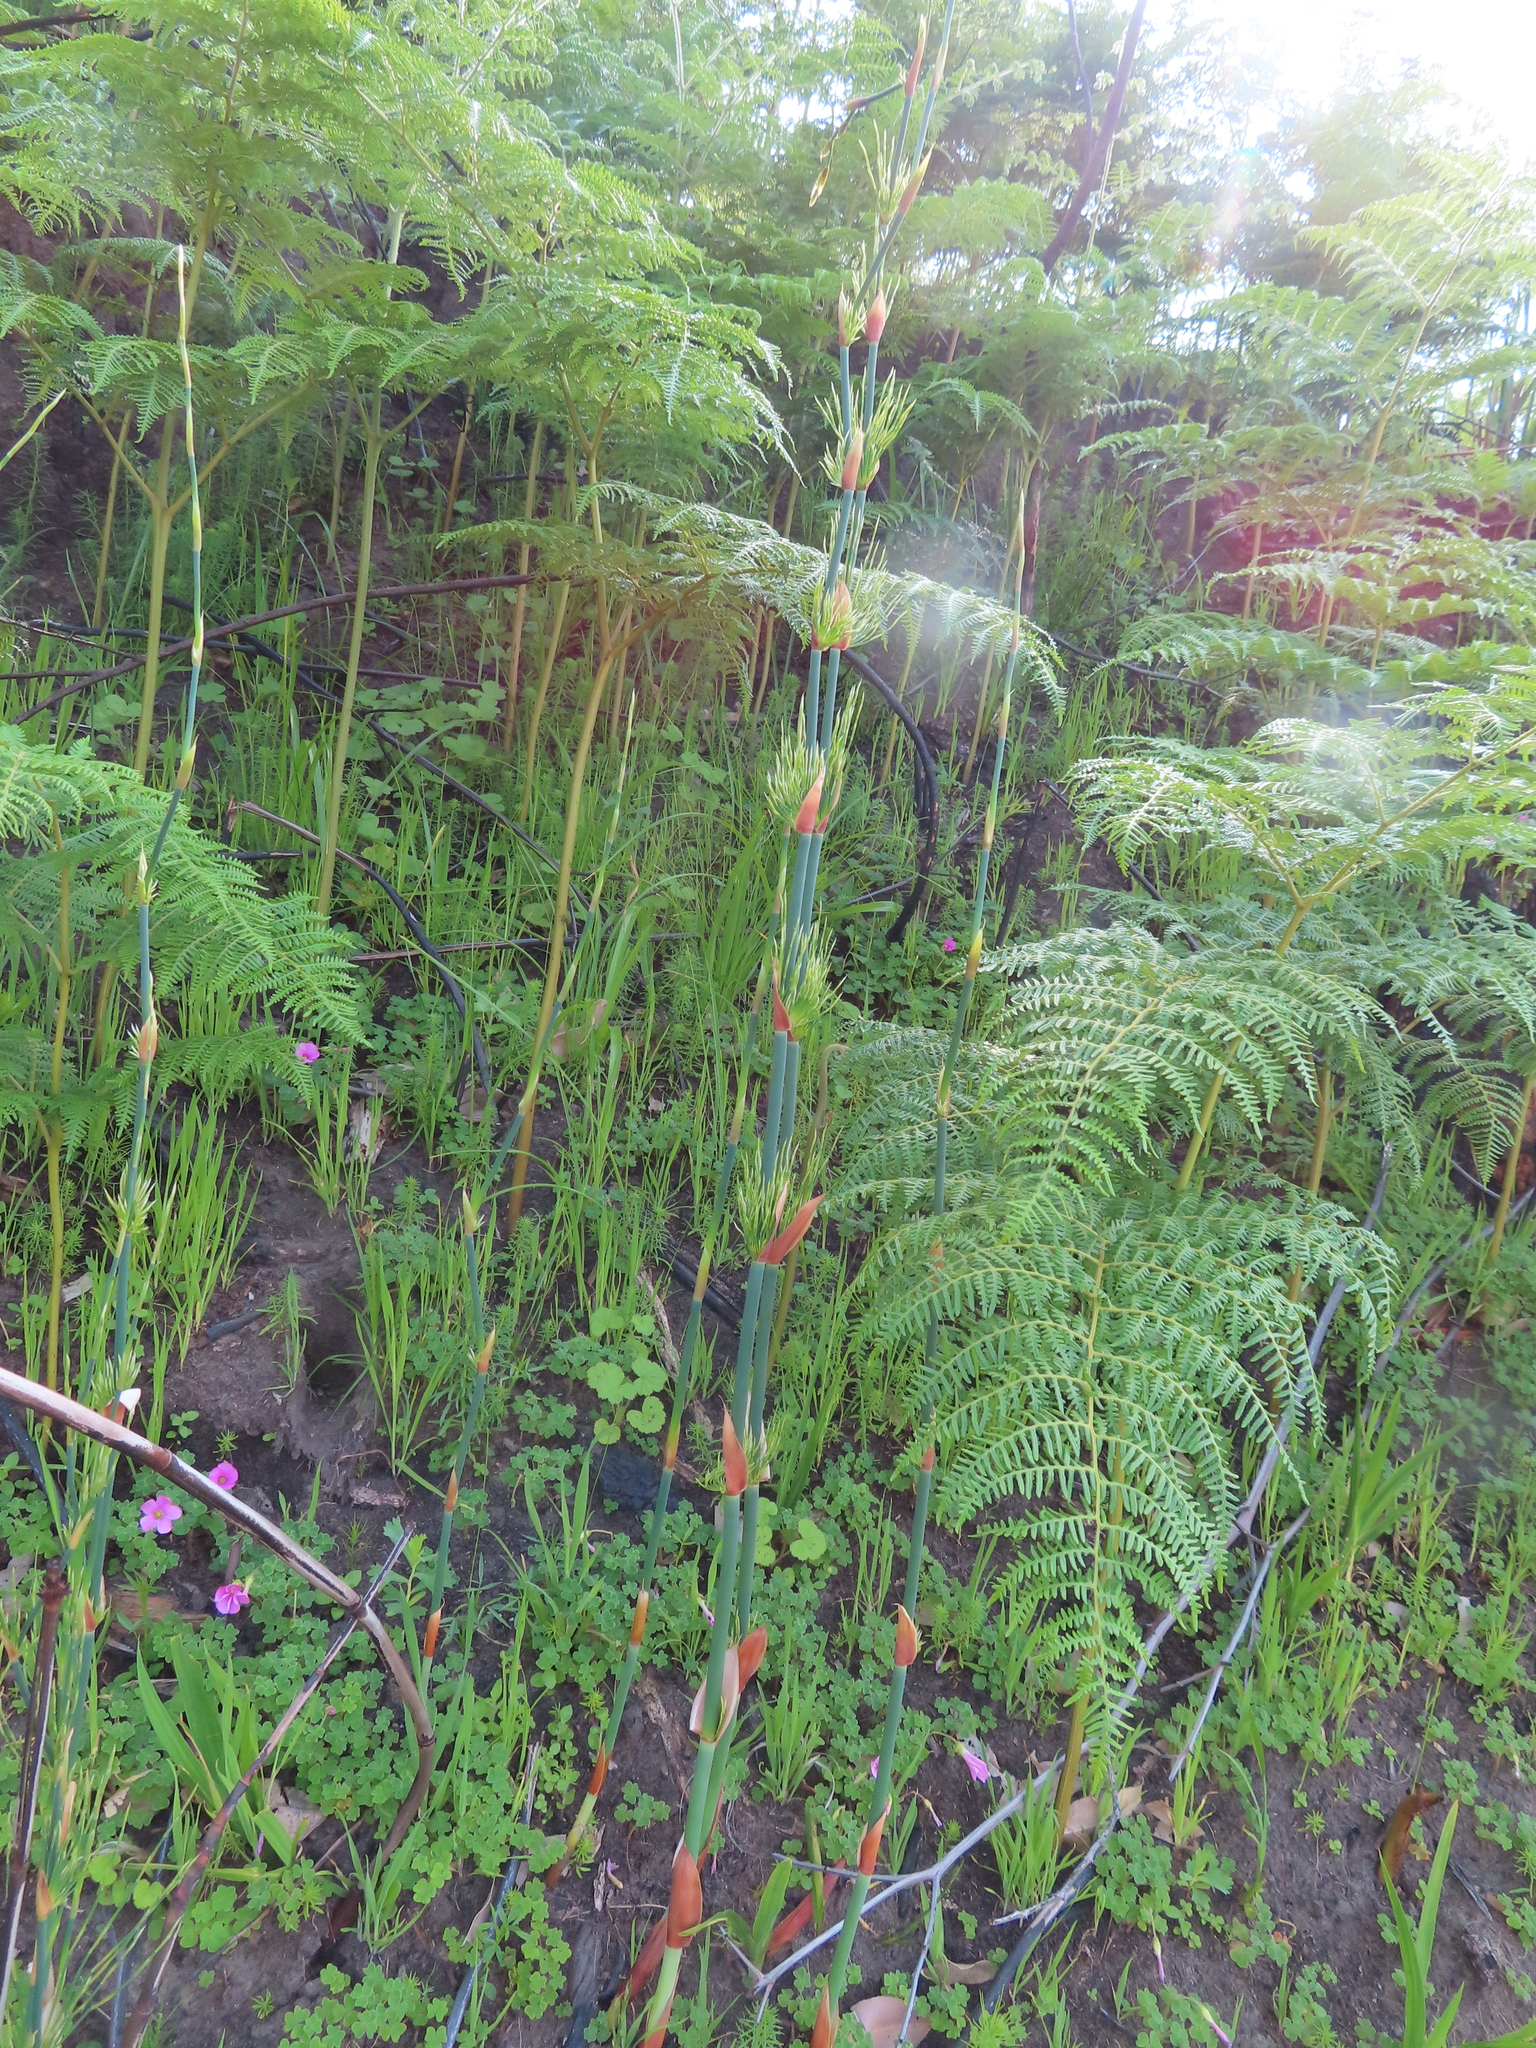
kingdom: Plantae
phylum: Tracheophyta
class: Liliopsida
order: Poales
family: Restionaceae
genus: Elegia
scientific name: Elegia capensis
